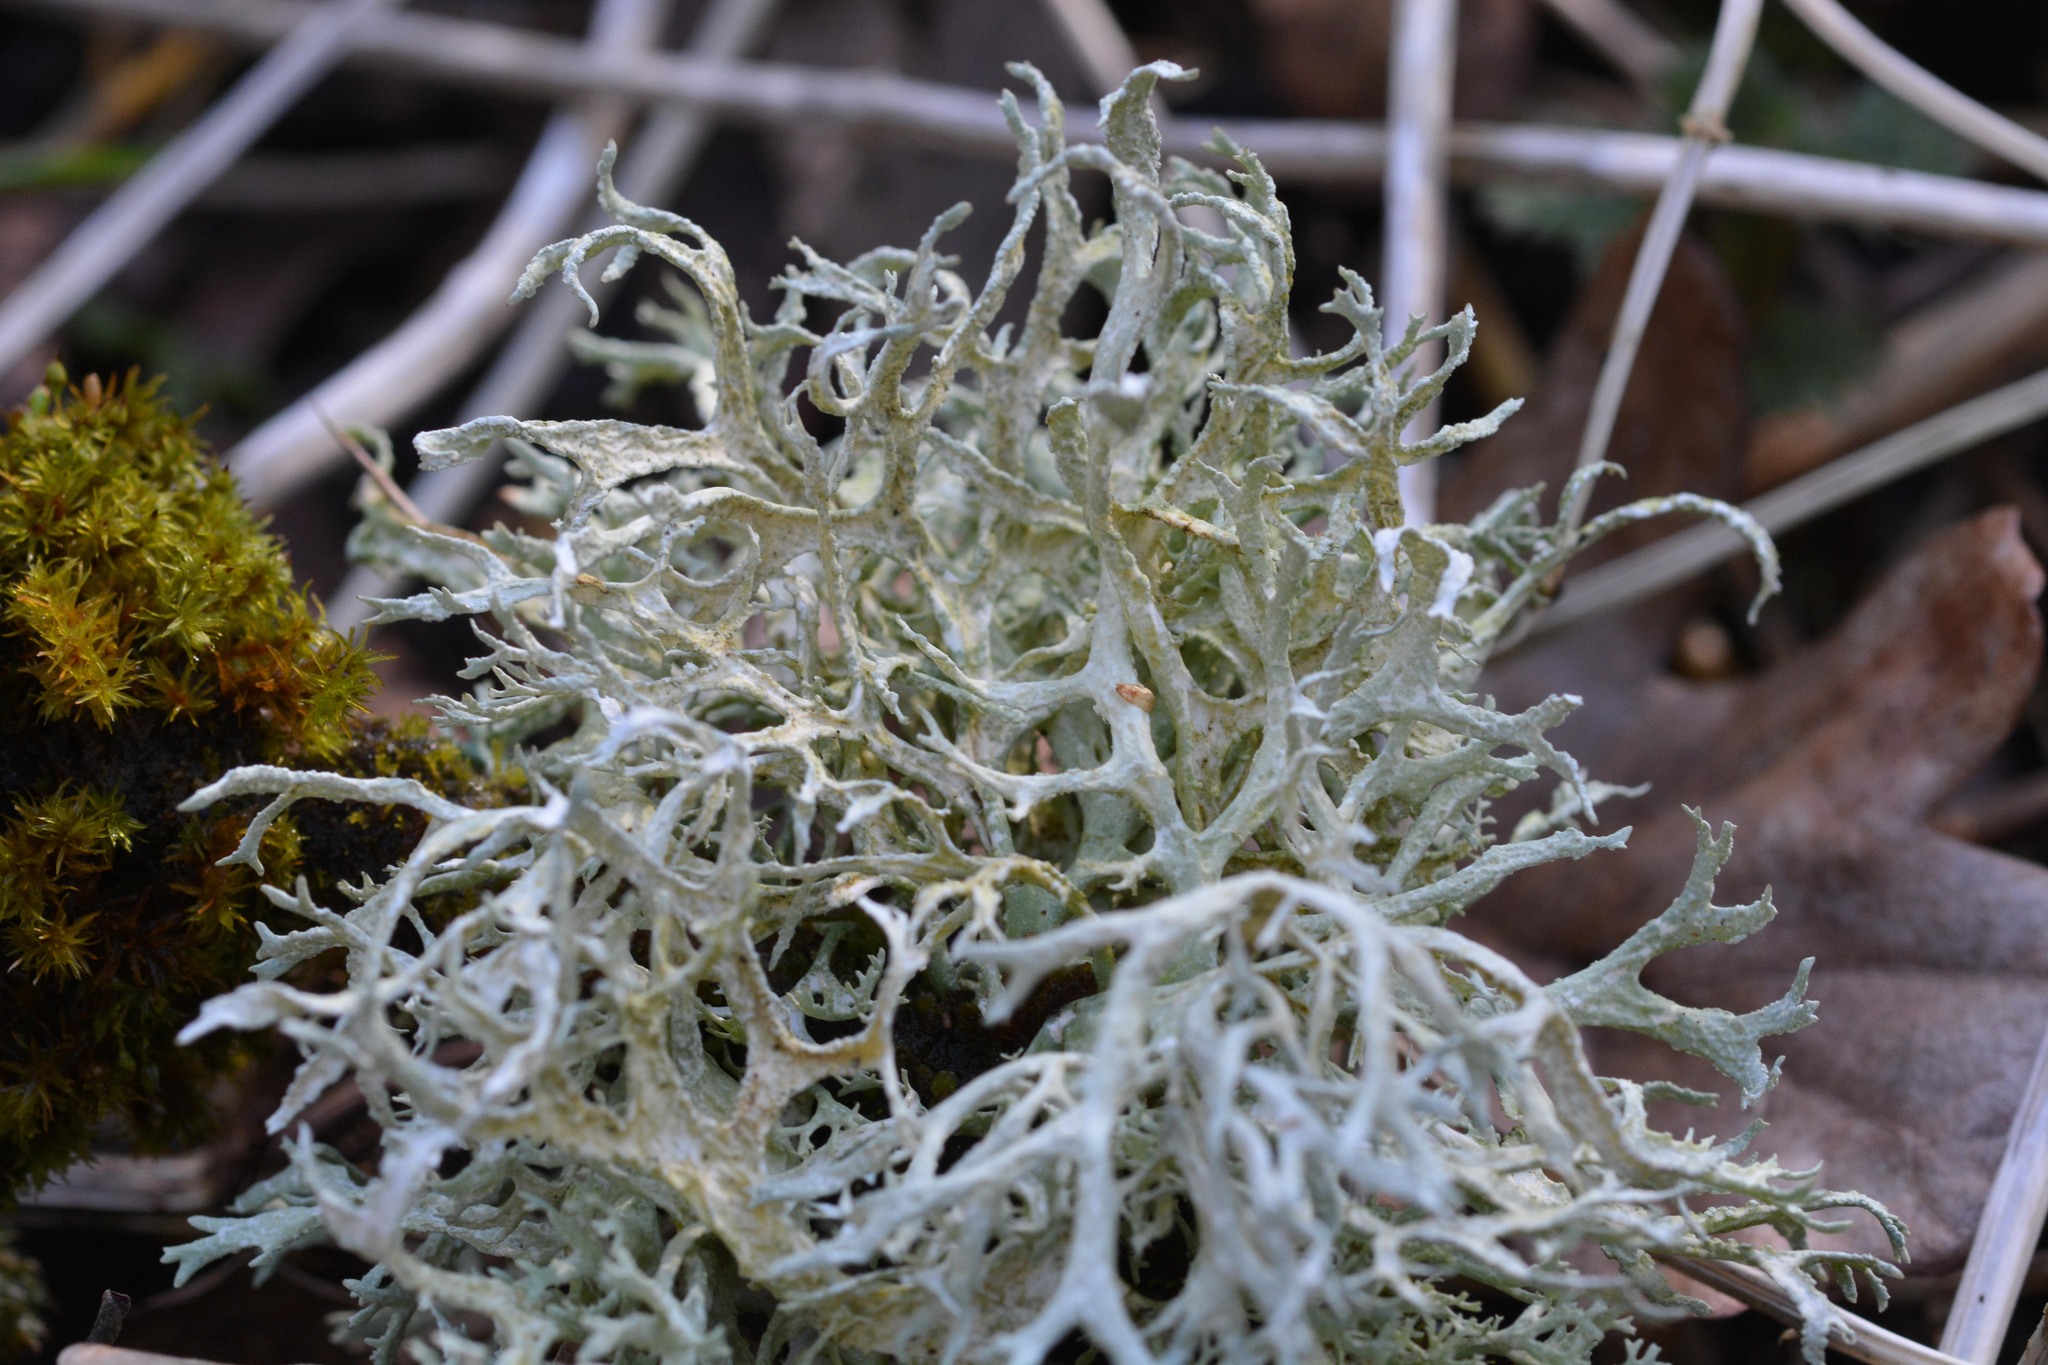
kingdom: Fungi
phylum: Ascomycota
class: Lecanoromycetes
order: Lecanorales
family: Parmeliaceae
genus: Evernia
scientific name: Evernia prunastri
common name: Oak moss
